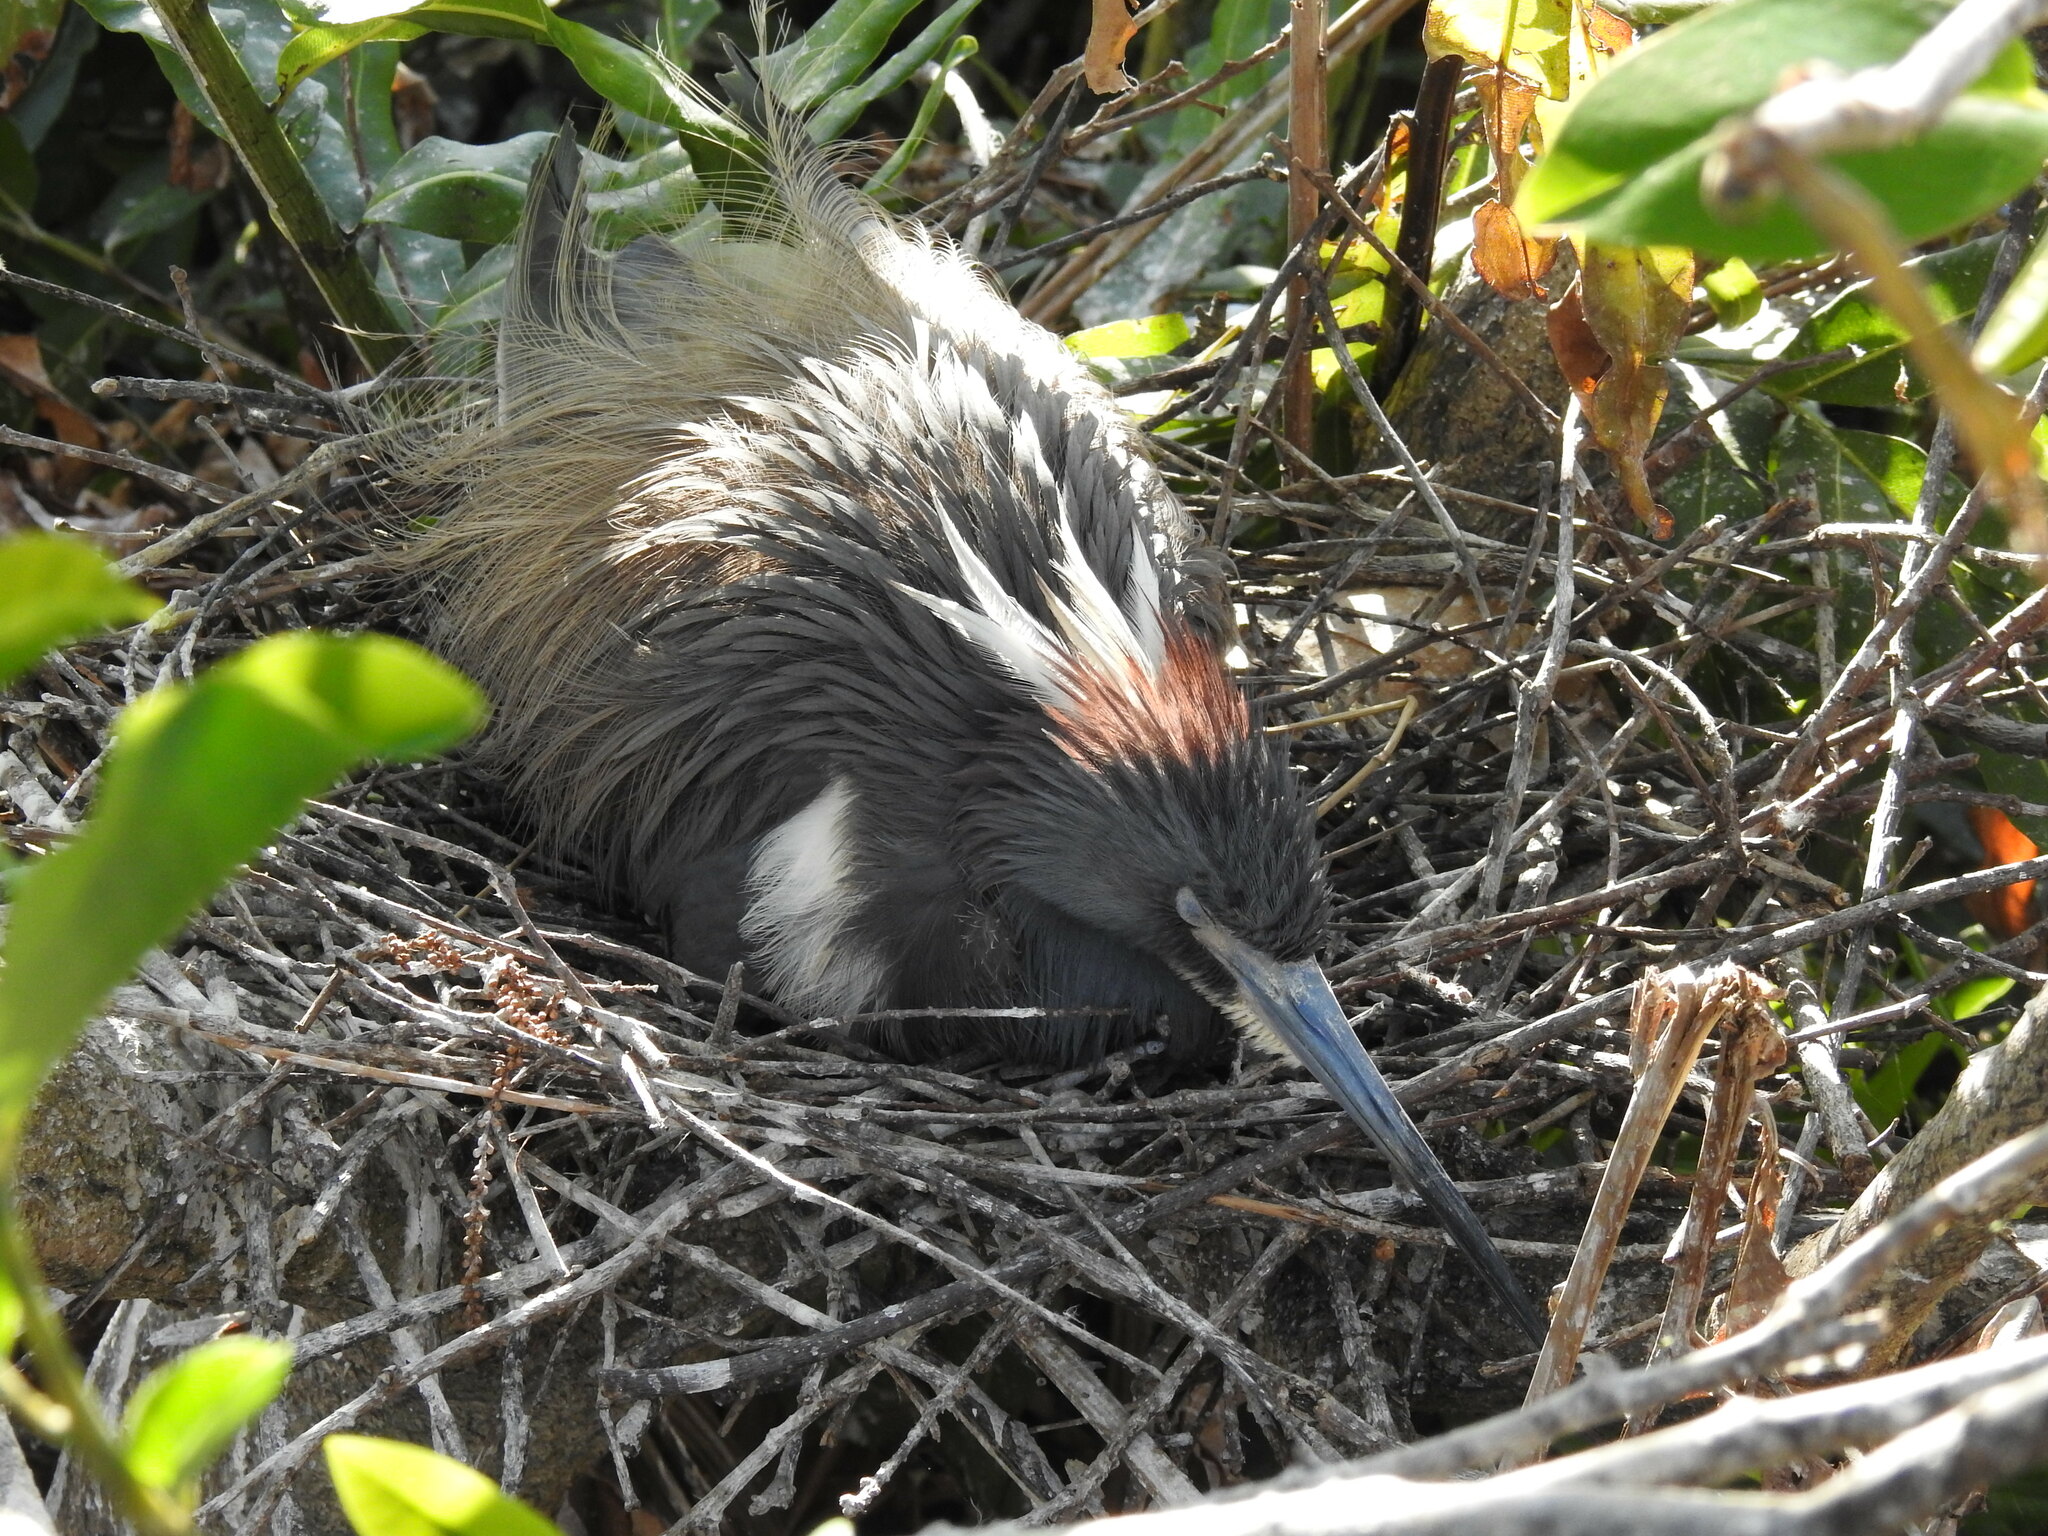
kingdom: Animalia
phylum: Chordata
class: Aves
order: Pelecaniformes
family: Ardeidae
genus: Egretta
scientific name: Egretta tricolor
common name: Tricolored heron
